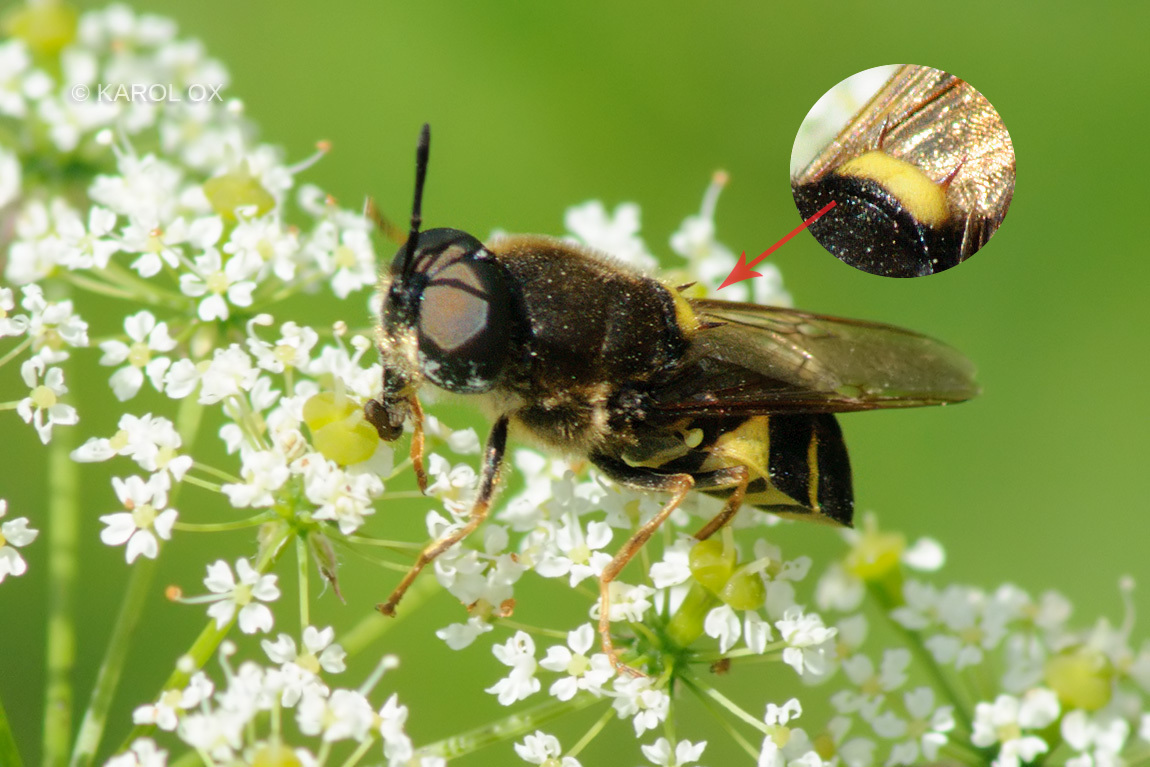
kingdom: Animalia
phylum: Arthropoda
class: Insecta
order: Diptera
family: Stratiomyidae
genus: Stratiomys
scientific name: Stratiomys potamida
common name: Banded general
